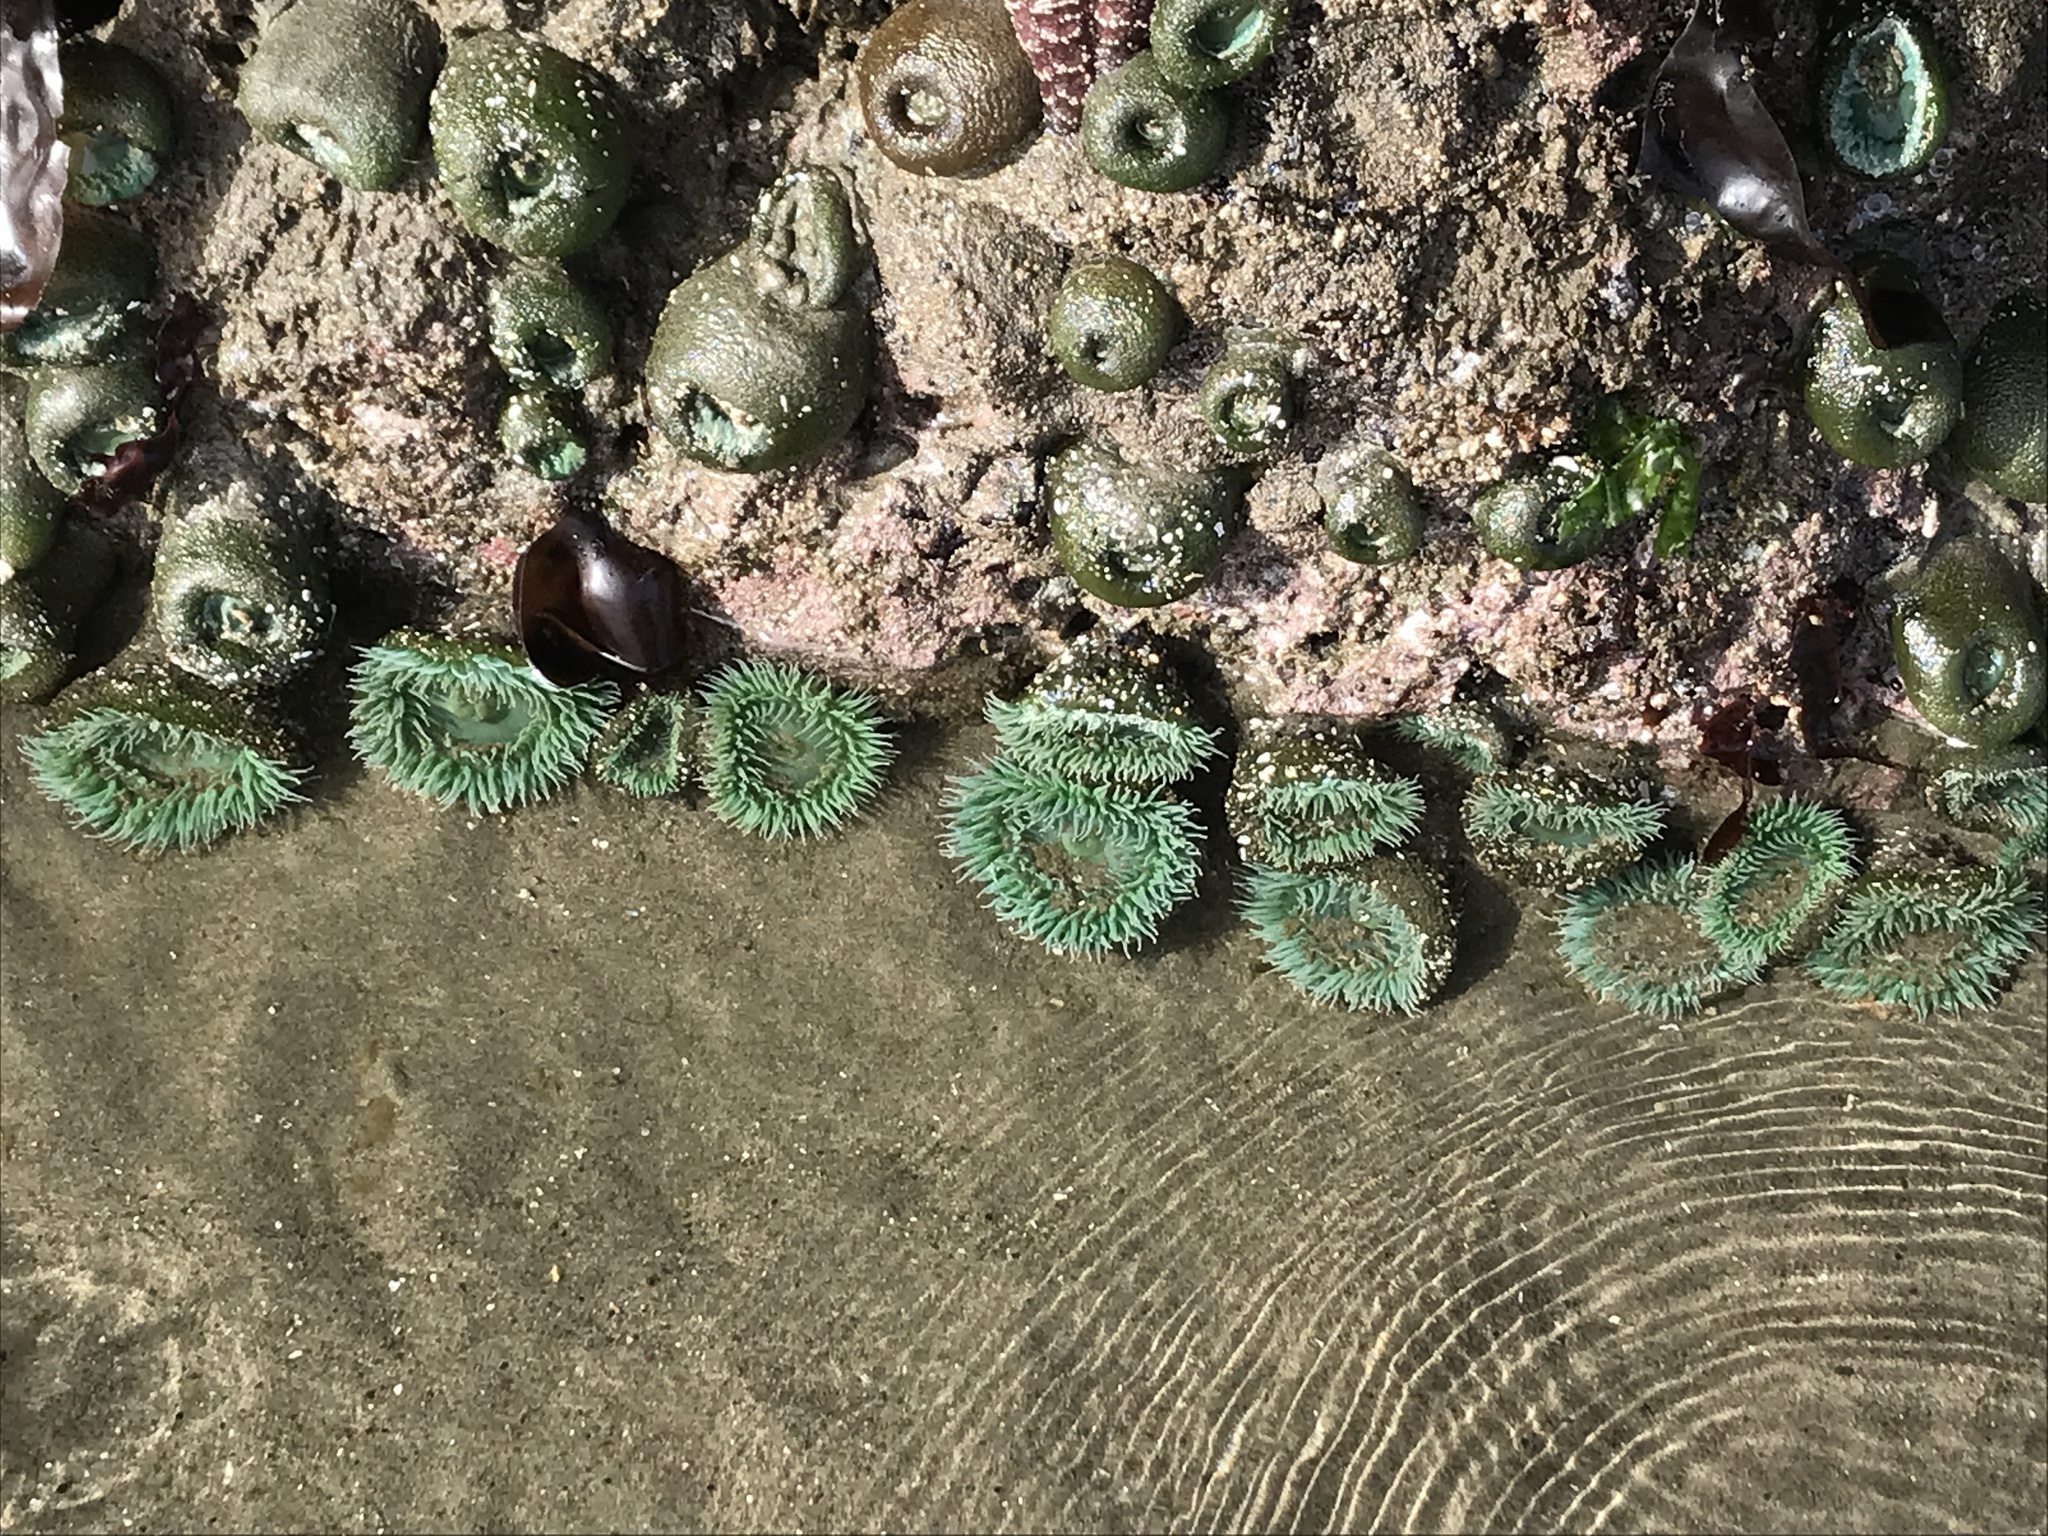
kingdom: Animalia
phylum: Cnidaria
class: Anthozoa
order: Actiniaria
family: Actiniidae
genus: Anthopleura
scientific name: Anthopleura xanthogrammica
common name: Giant green anemone
